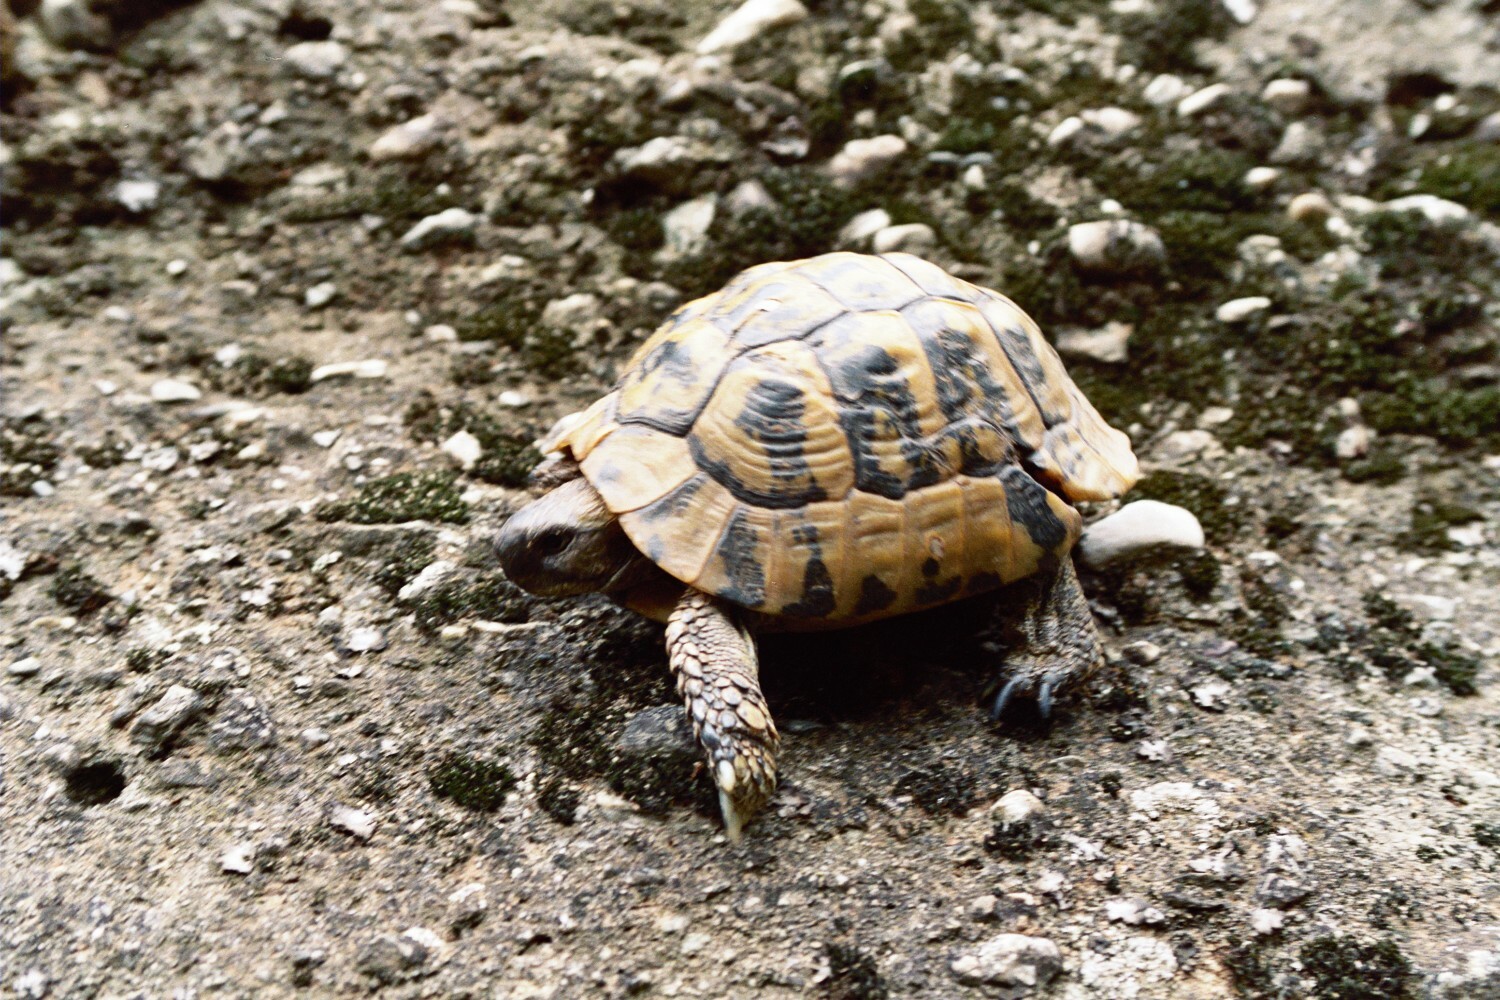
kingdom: Animalia
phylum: Chordata
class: Testudines
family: Testudinidae
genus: Testudo
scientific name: Testudo hermanni
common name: Hermann's tortoise
